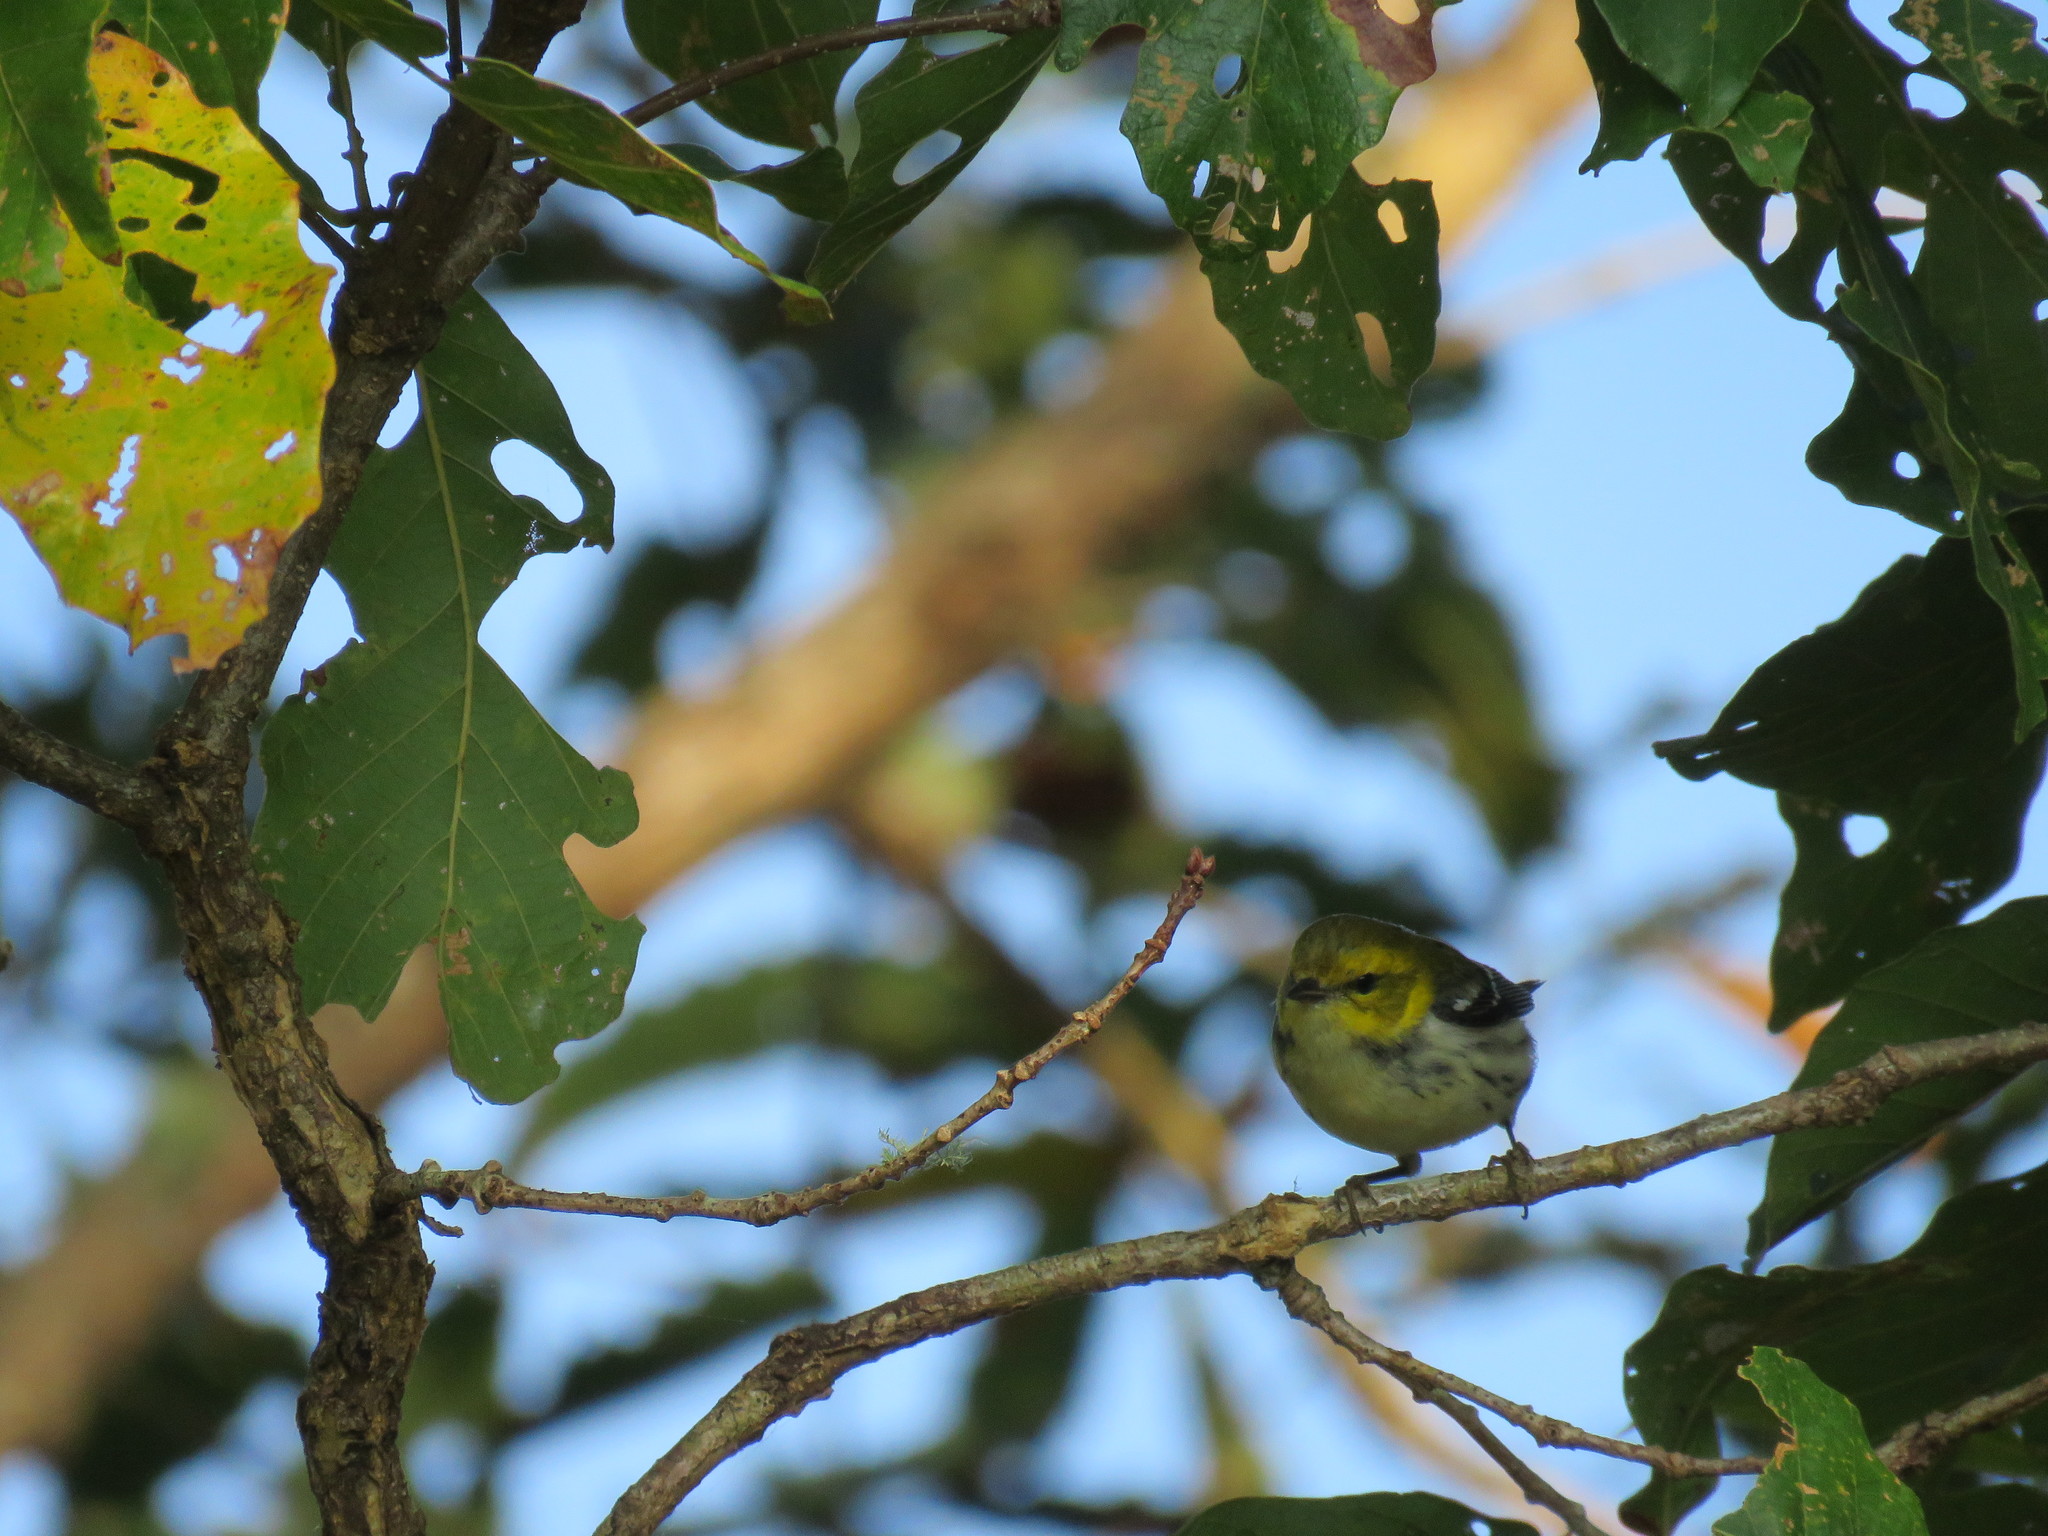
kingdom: Animalia
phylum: Chordata
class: Aves
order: Passeriformes
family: Parulidae
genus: Setophaga
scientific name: Setophaga virens
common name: Black-throated green warbler
